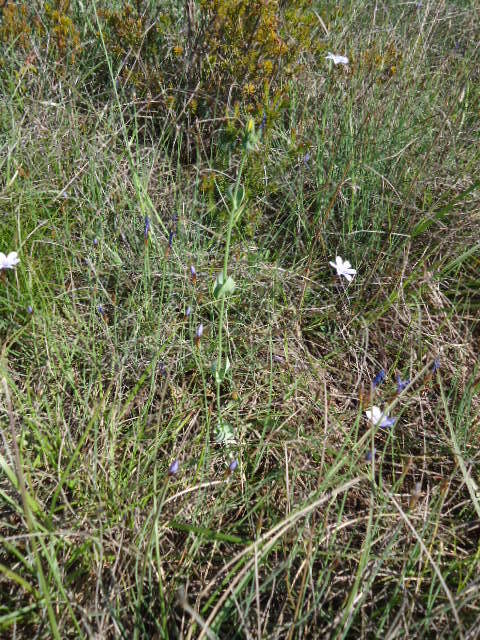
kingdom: Plantae
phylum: Tracheophyta
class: Magnoliopsida
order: Gentianales
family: Gentianaceae
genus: Blackstonia
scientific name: Blackstonia perfoliata
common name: Yellow-wort
